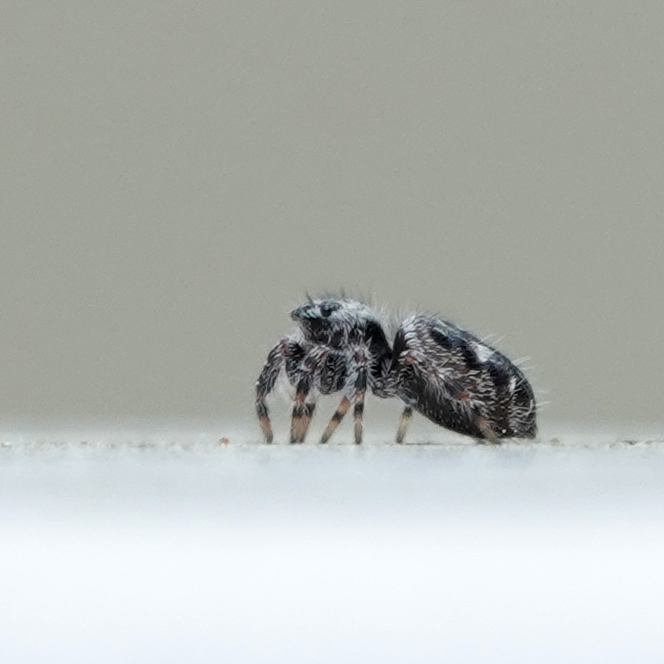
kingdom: Animalia
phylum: Arthropoda
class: Arachnida
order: Araneae
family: Salticidae
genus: Phidippus
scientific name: Phidippus putnami
